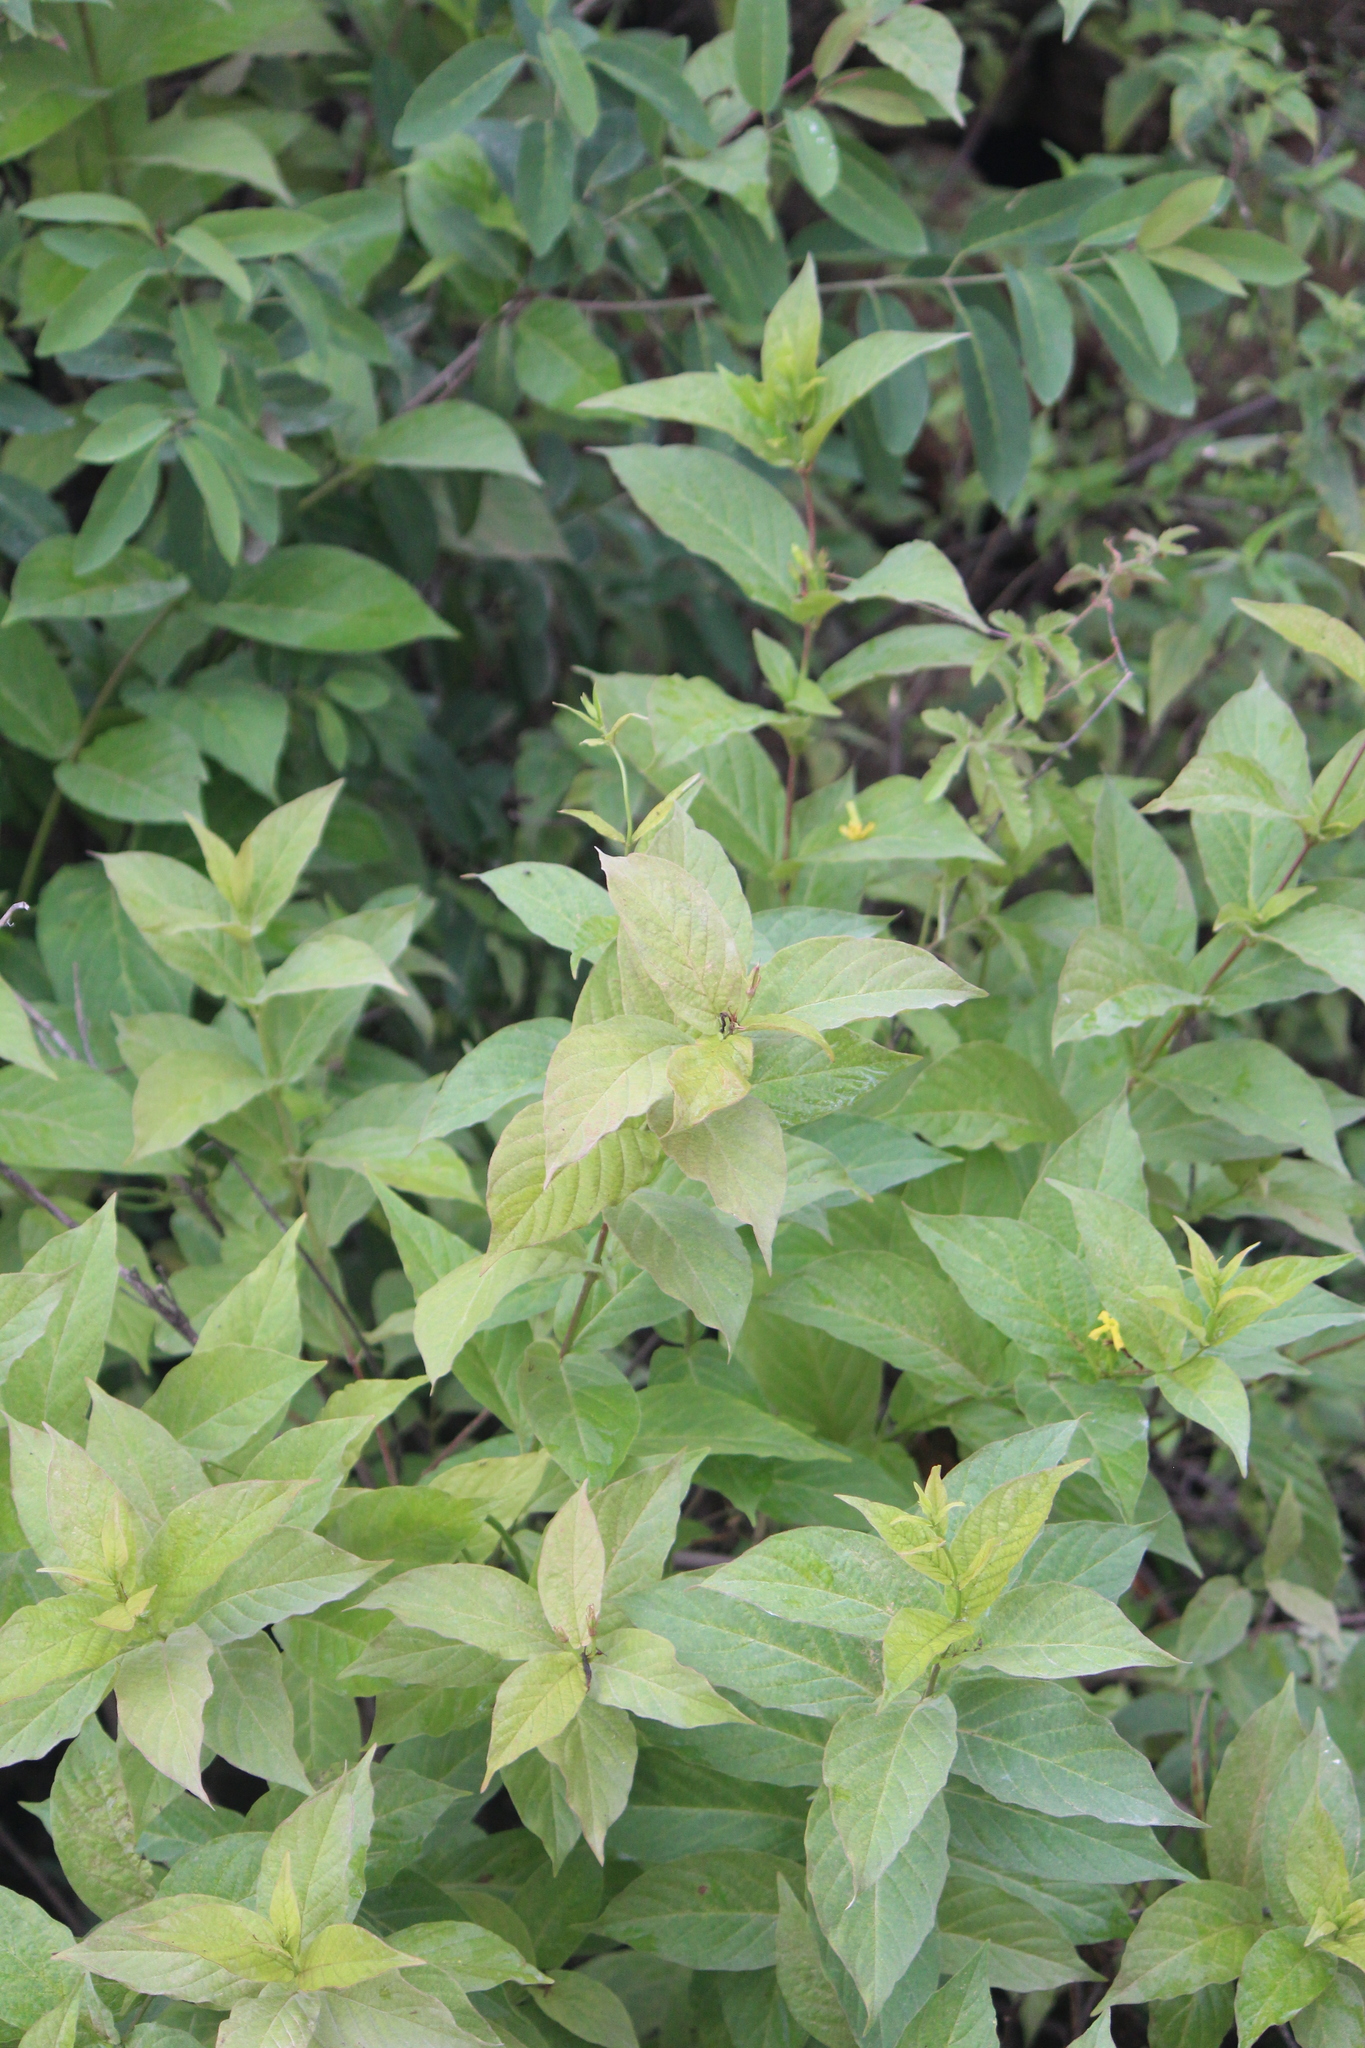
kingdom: Plantae
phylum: Tracheophyta
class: Magnoliopsida
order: Gentianales
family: Apocynaceae
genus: Mandevilla
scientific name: Mandevilla foliosa
